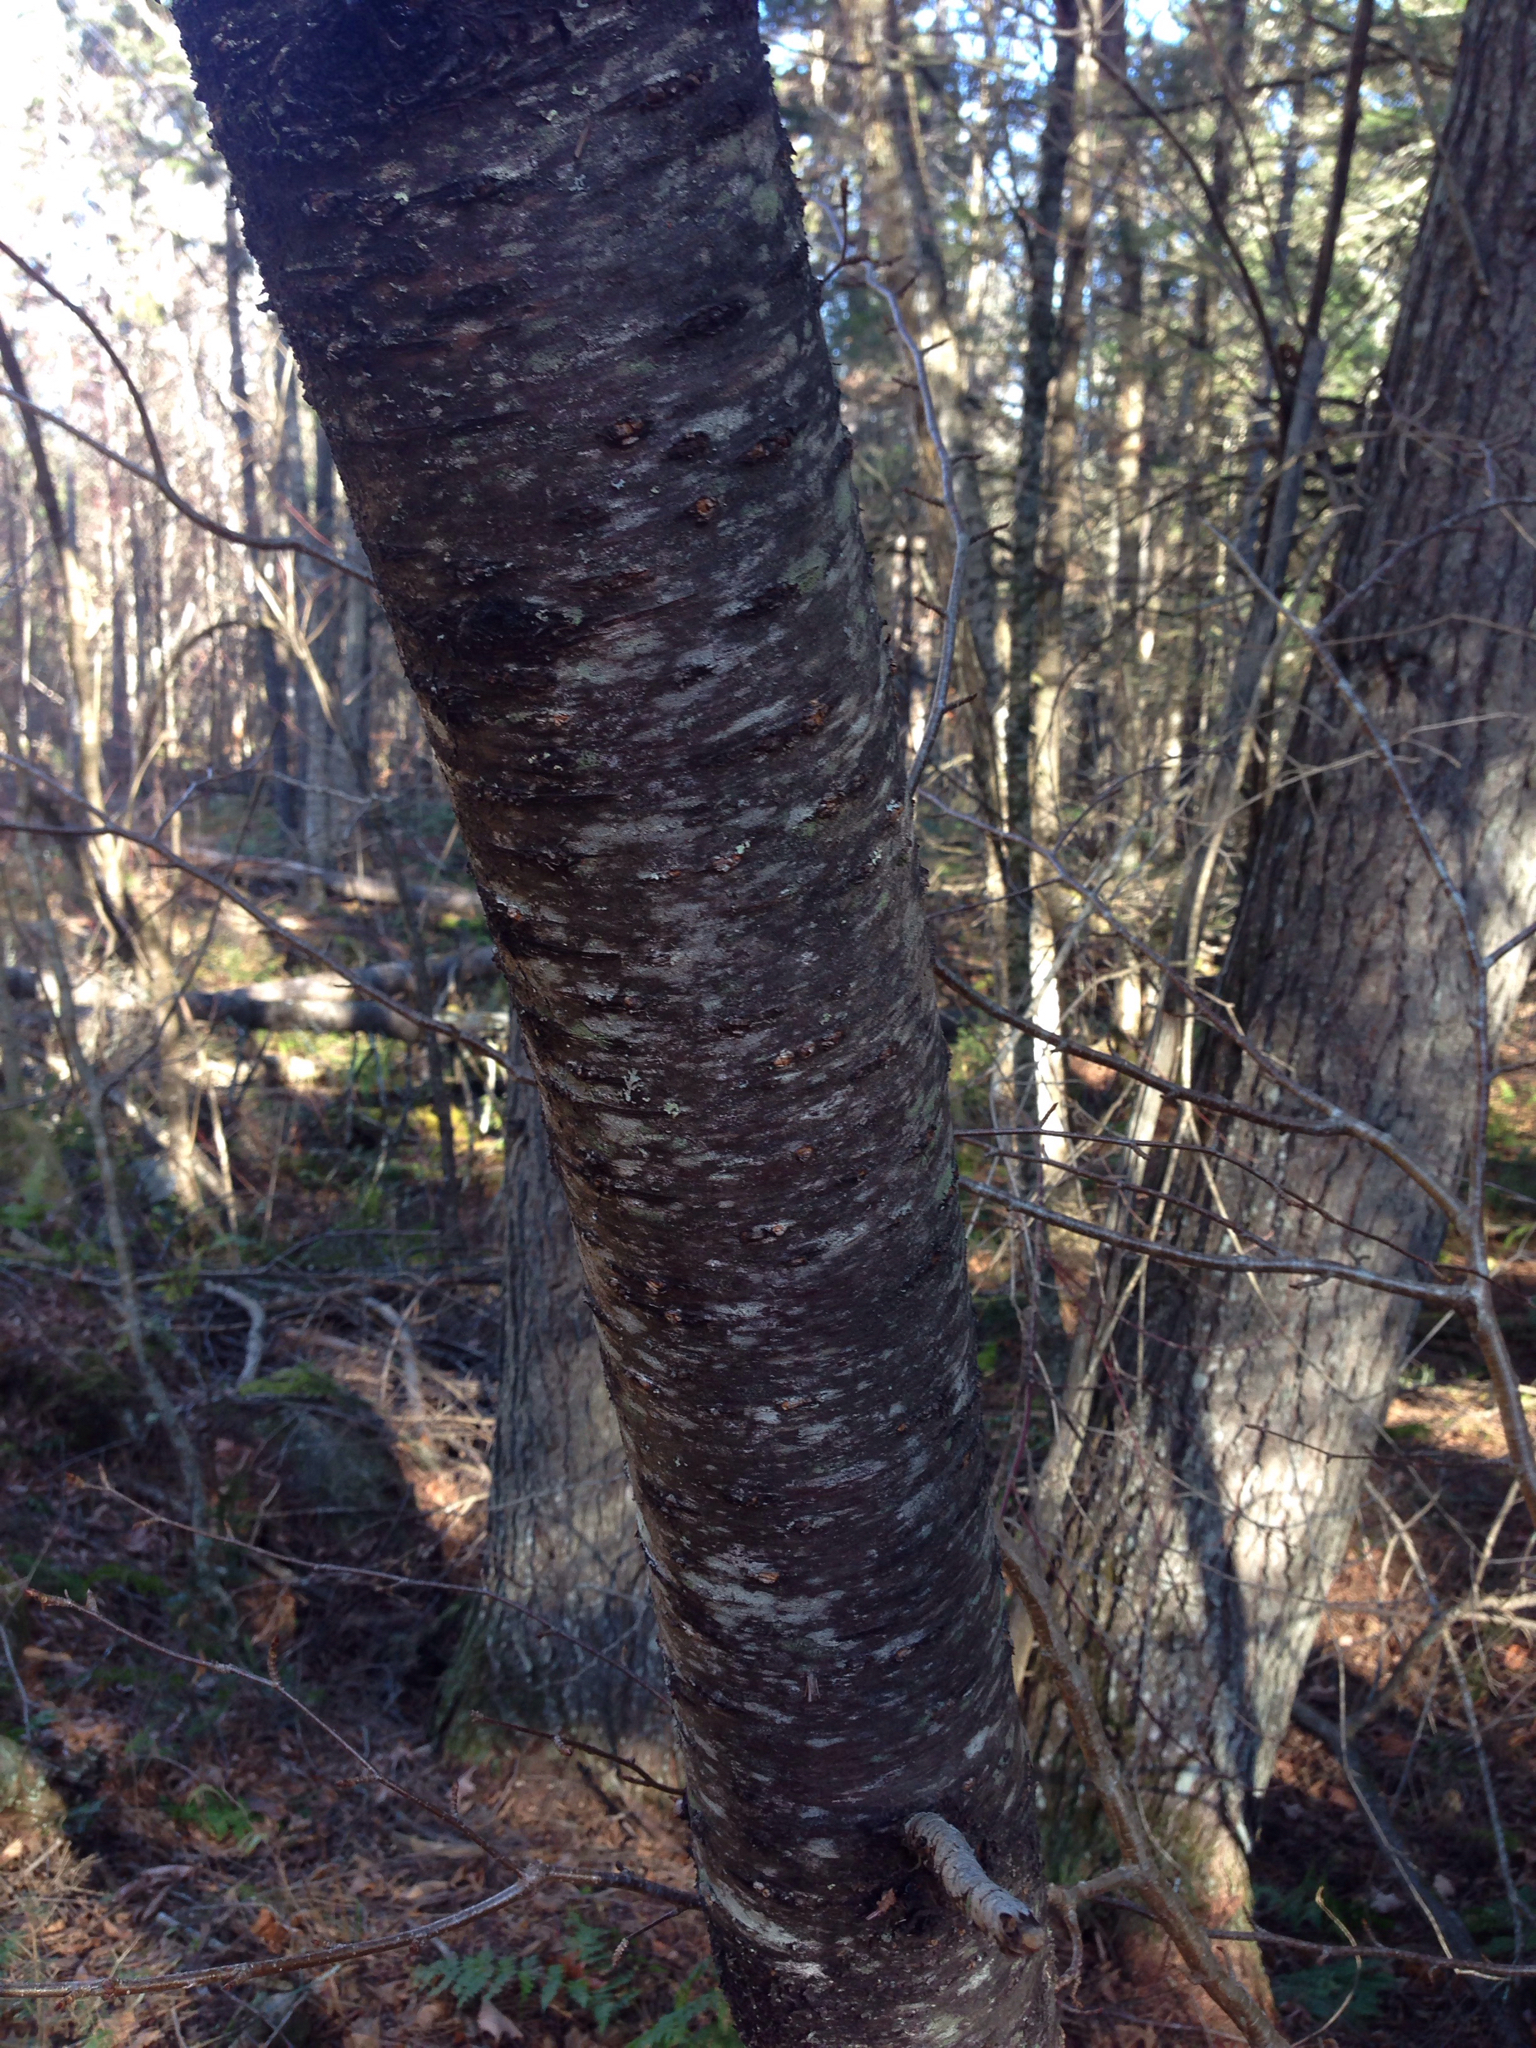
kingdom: Plantae
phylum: Tracheophyta
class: Magnoliopsida
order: Rosales
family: Rosaceae
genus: Prunus
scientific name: Prunus pensylvanica
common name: Pin cherry
